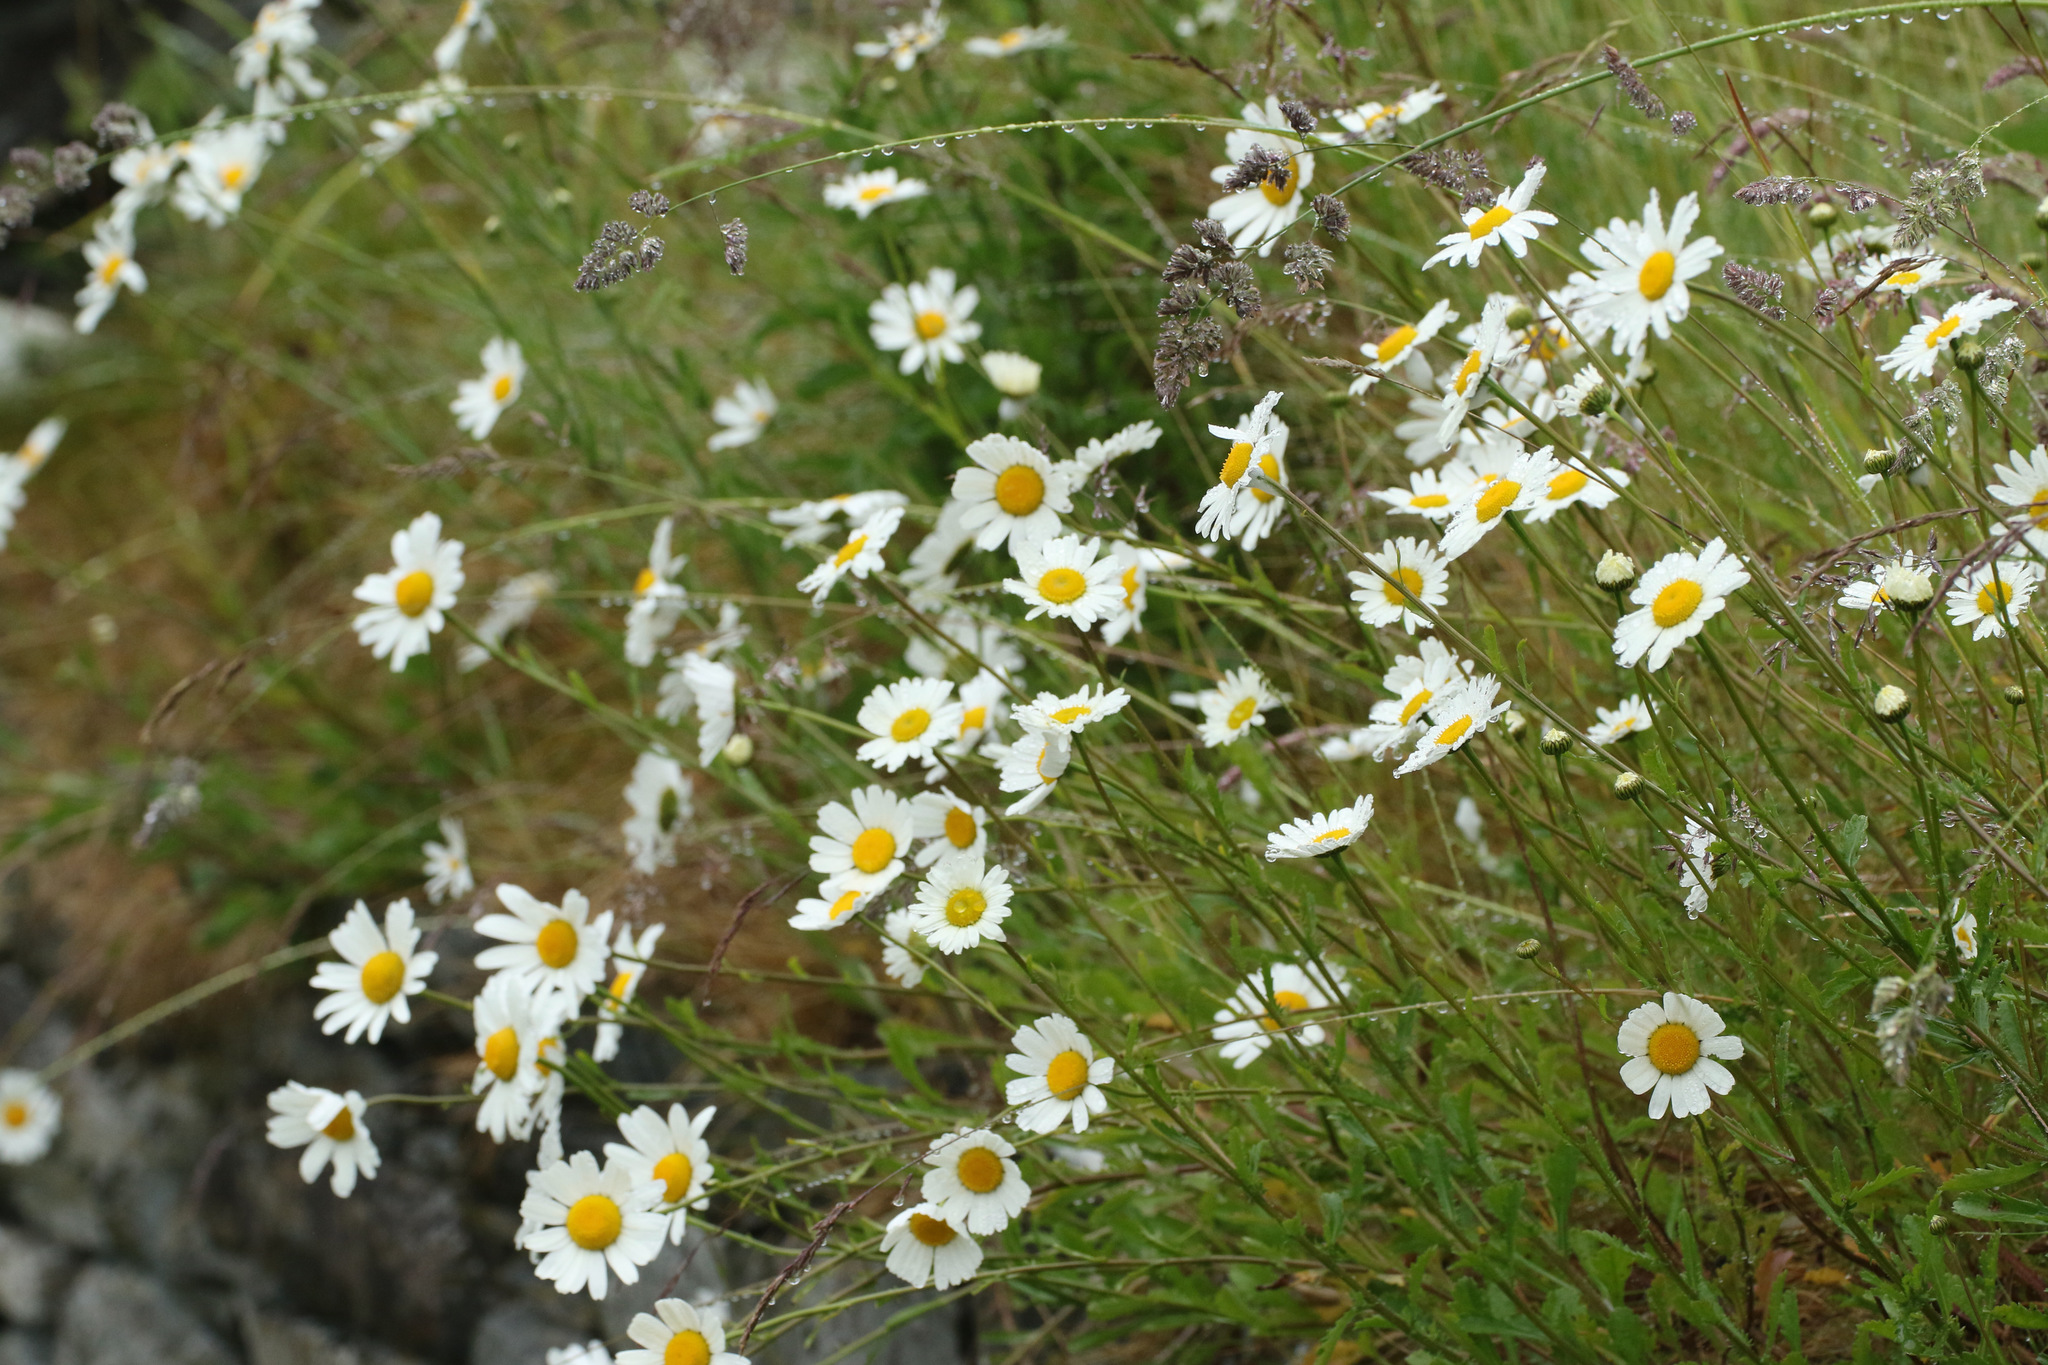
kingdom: Plantae
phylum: Tracheophyta
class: Magnoliopsida
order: Asterales
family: Asteraceae
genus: Leucanthemum
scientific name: Leucanthemum vulgare
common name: Oxeye daisy
